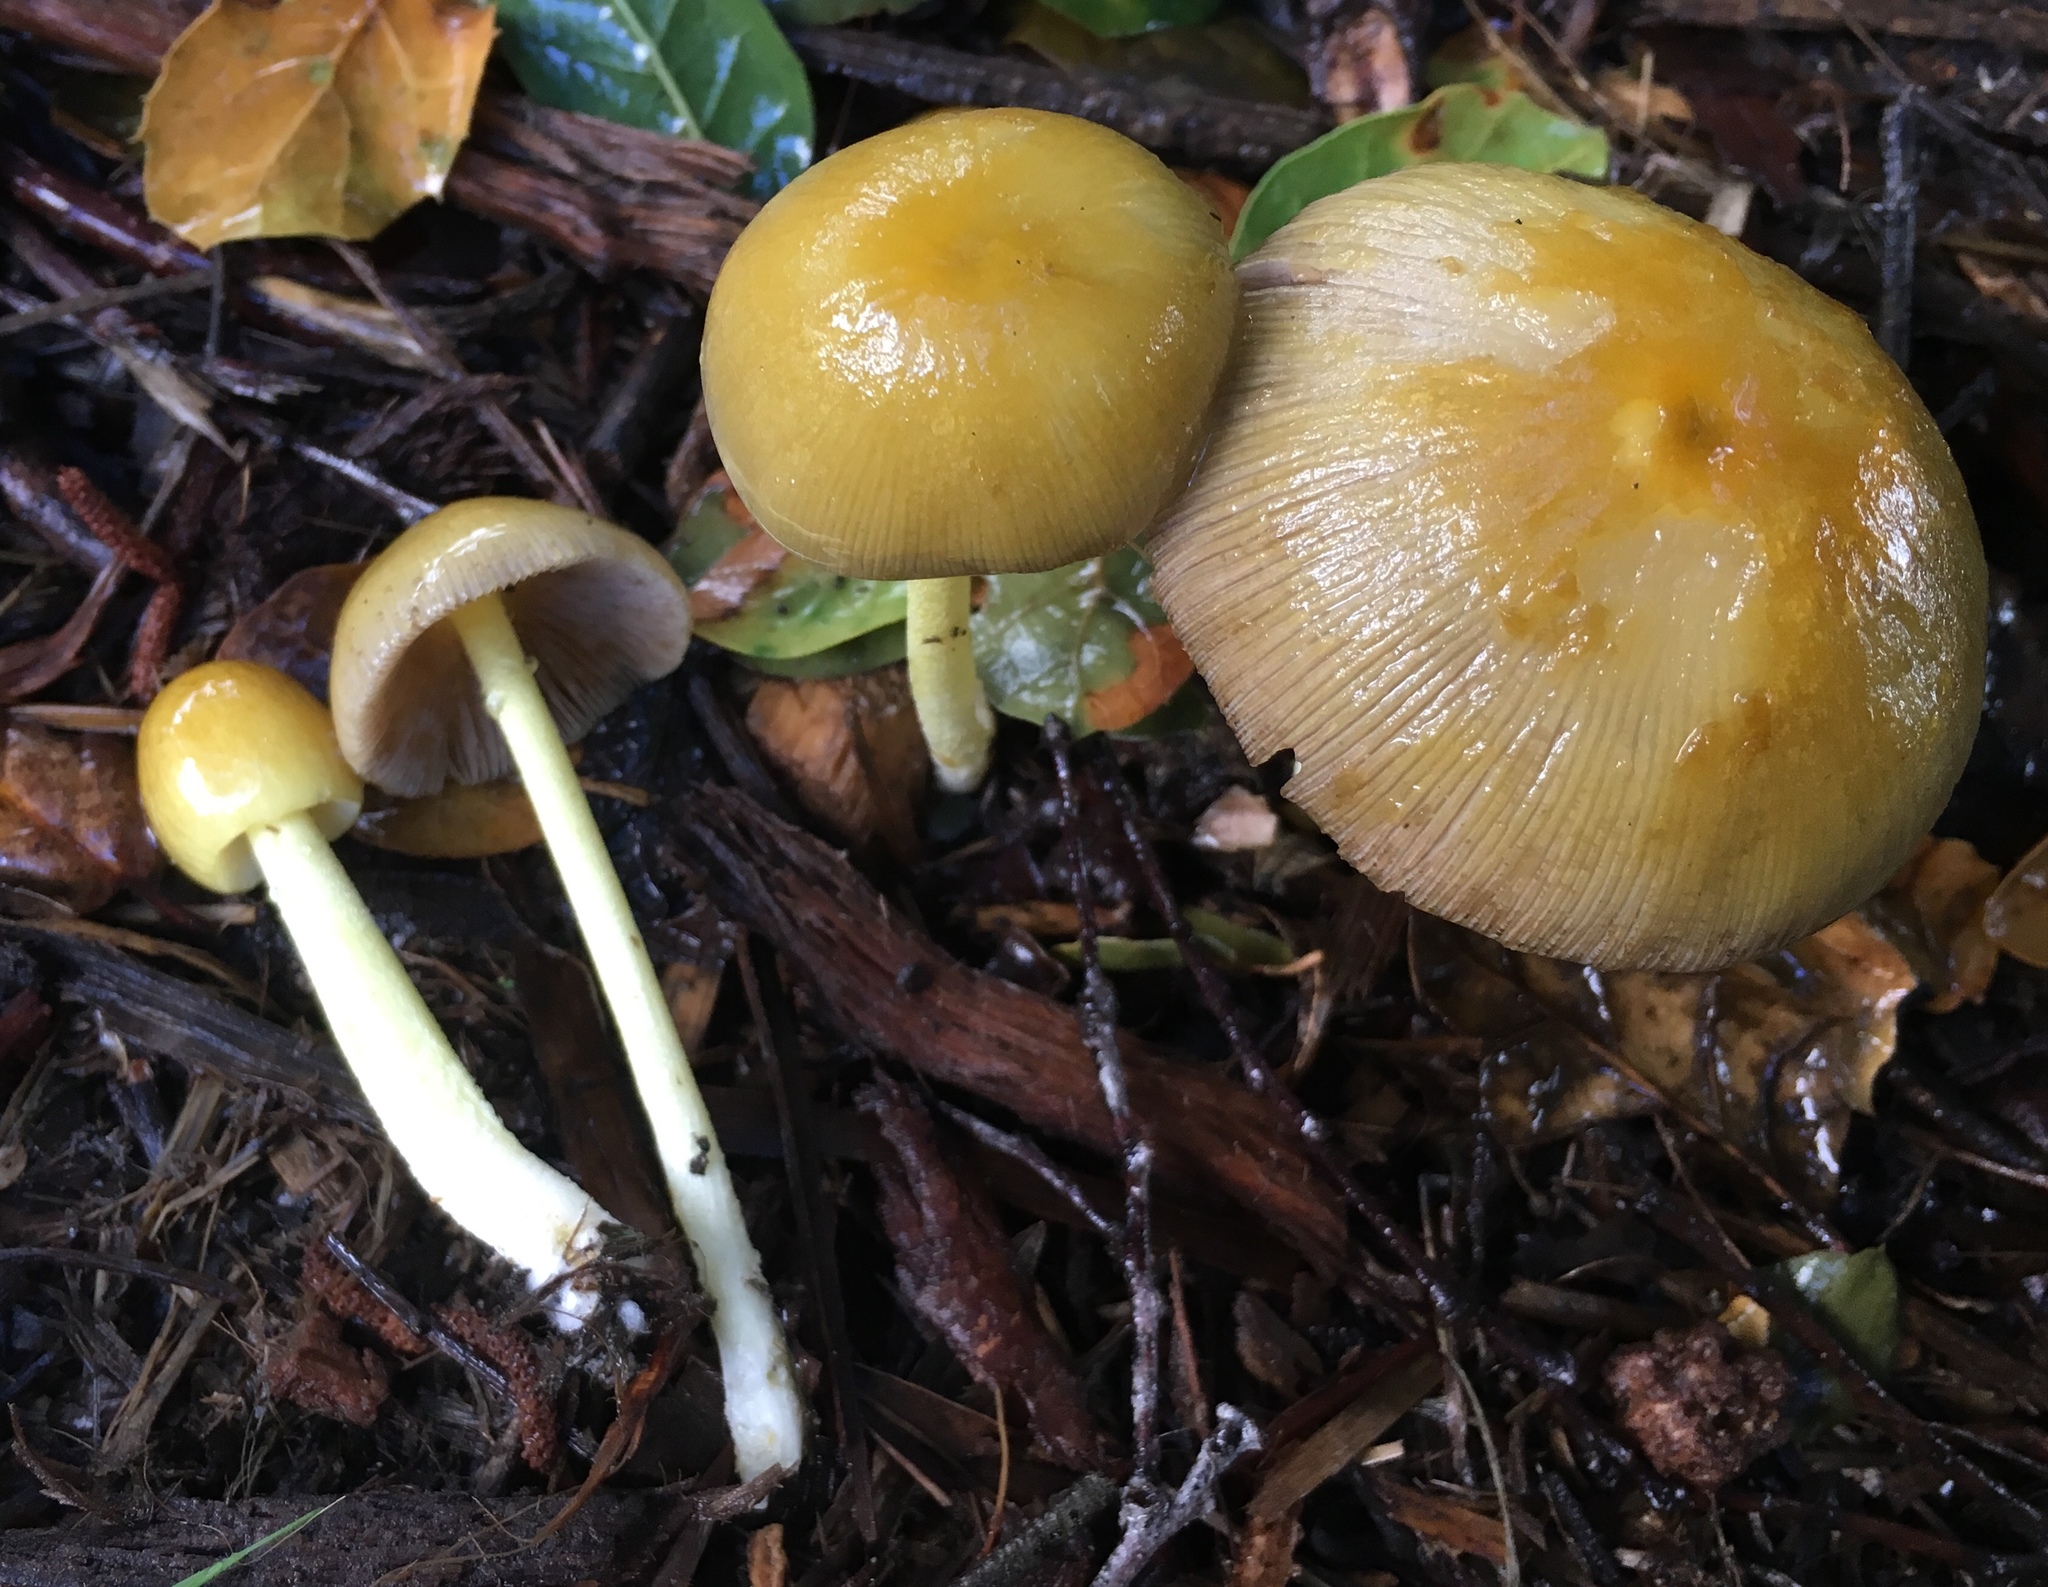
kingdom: Fungi
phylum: Basidiomycota
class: Agaricomycetes
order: Agaricales
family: Bolbitiaceae
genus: Bolbitius
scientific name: Bolbitius titubans
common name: Yellow fieldcap
